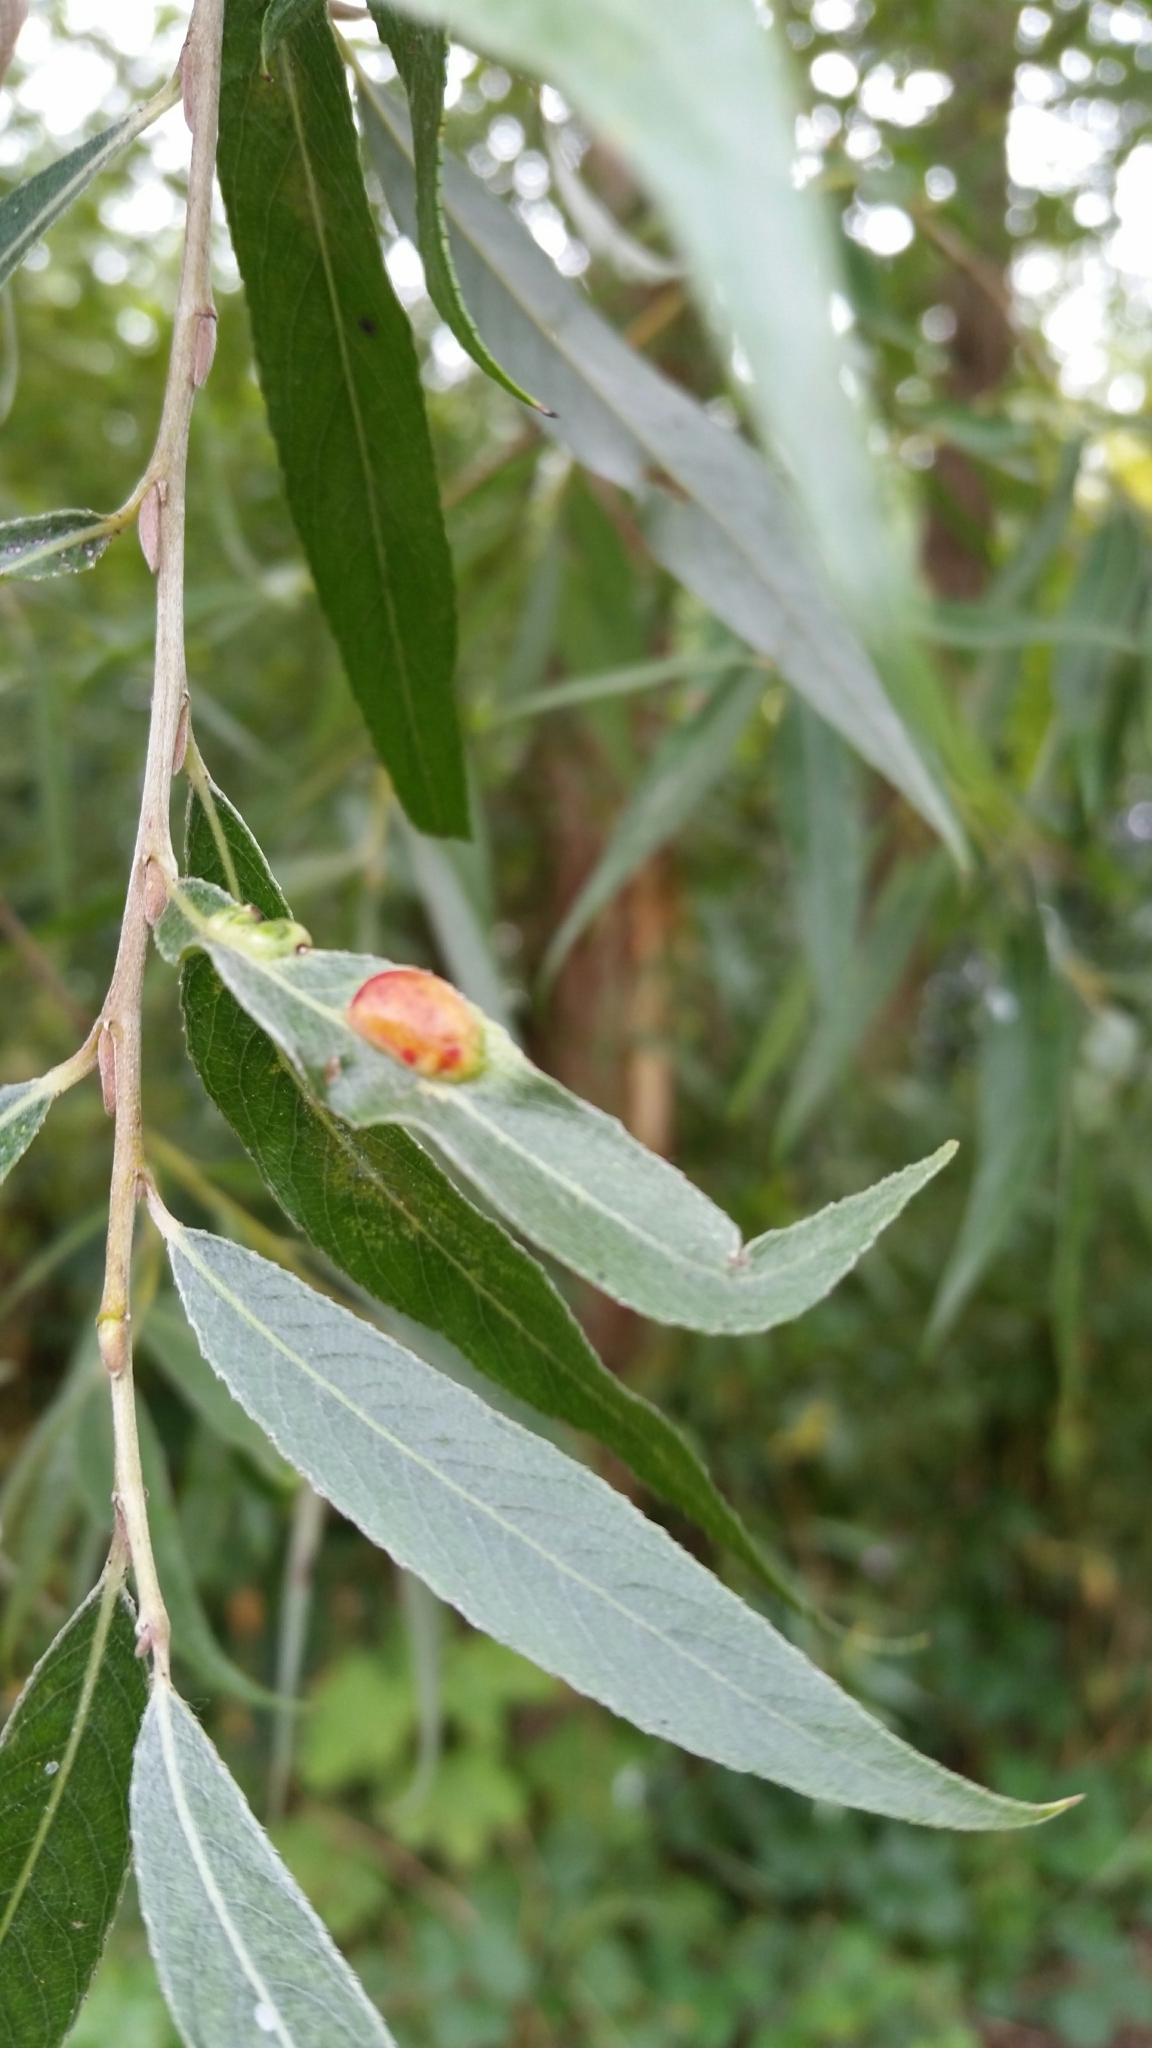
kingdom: Animalia
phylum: Arthropoda
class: Insecta
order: Hymenoptera
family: Tenthredinidae
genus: Pontania
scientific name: Pontania proxima
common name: Common sawfly
